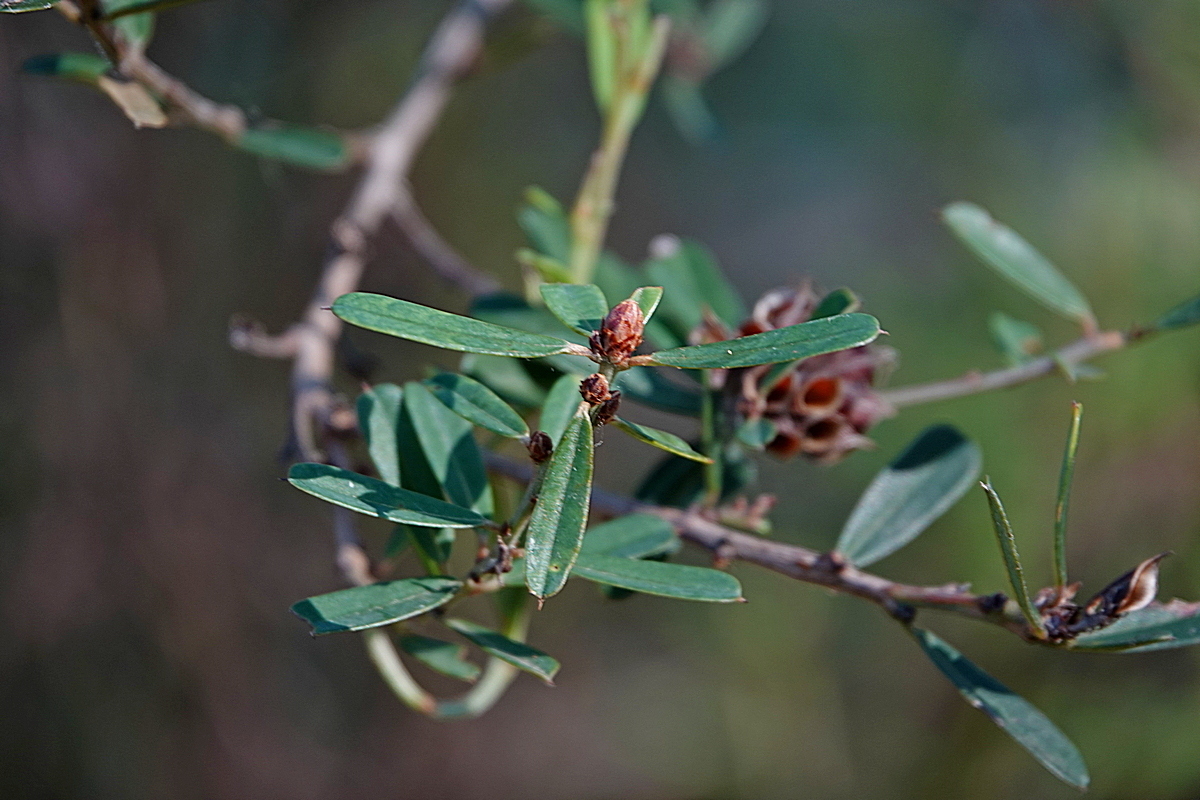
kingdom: Plantae
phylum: Tracheophyta
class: Magnoliopsida
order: Fabales
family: Fabaceae
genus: Pultenaea
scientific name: Pultenaea daphnoides
